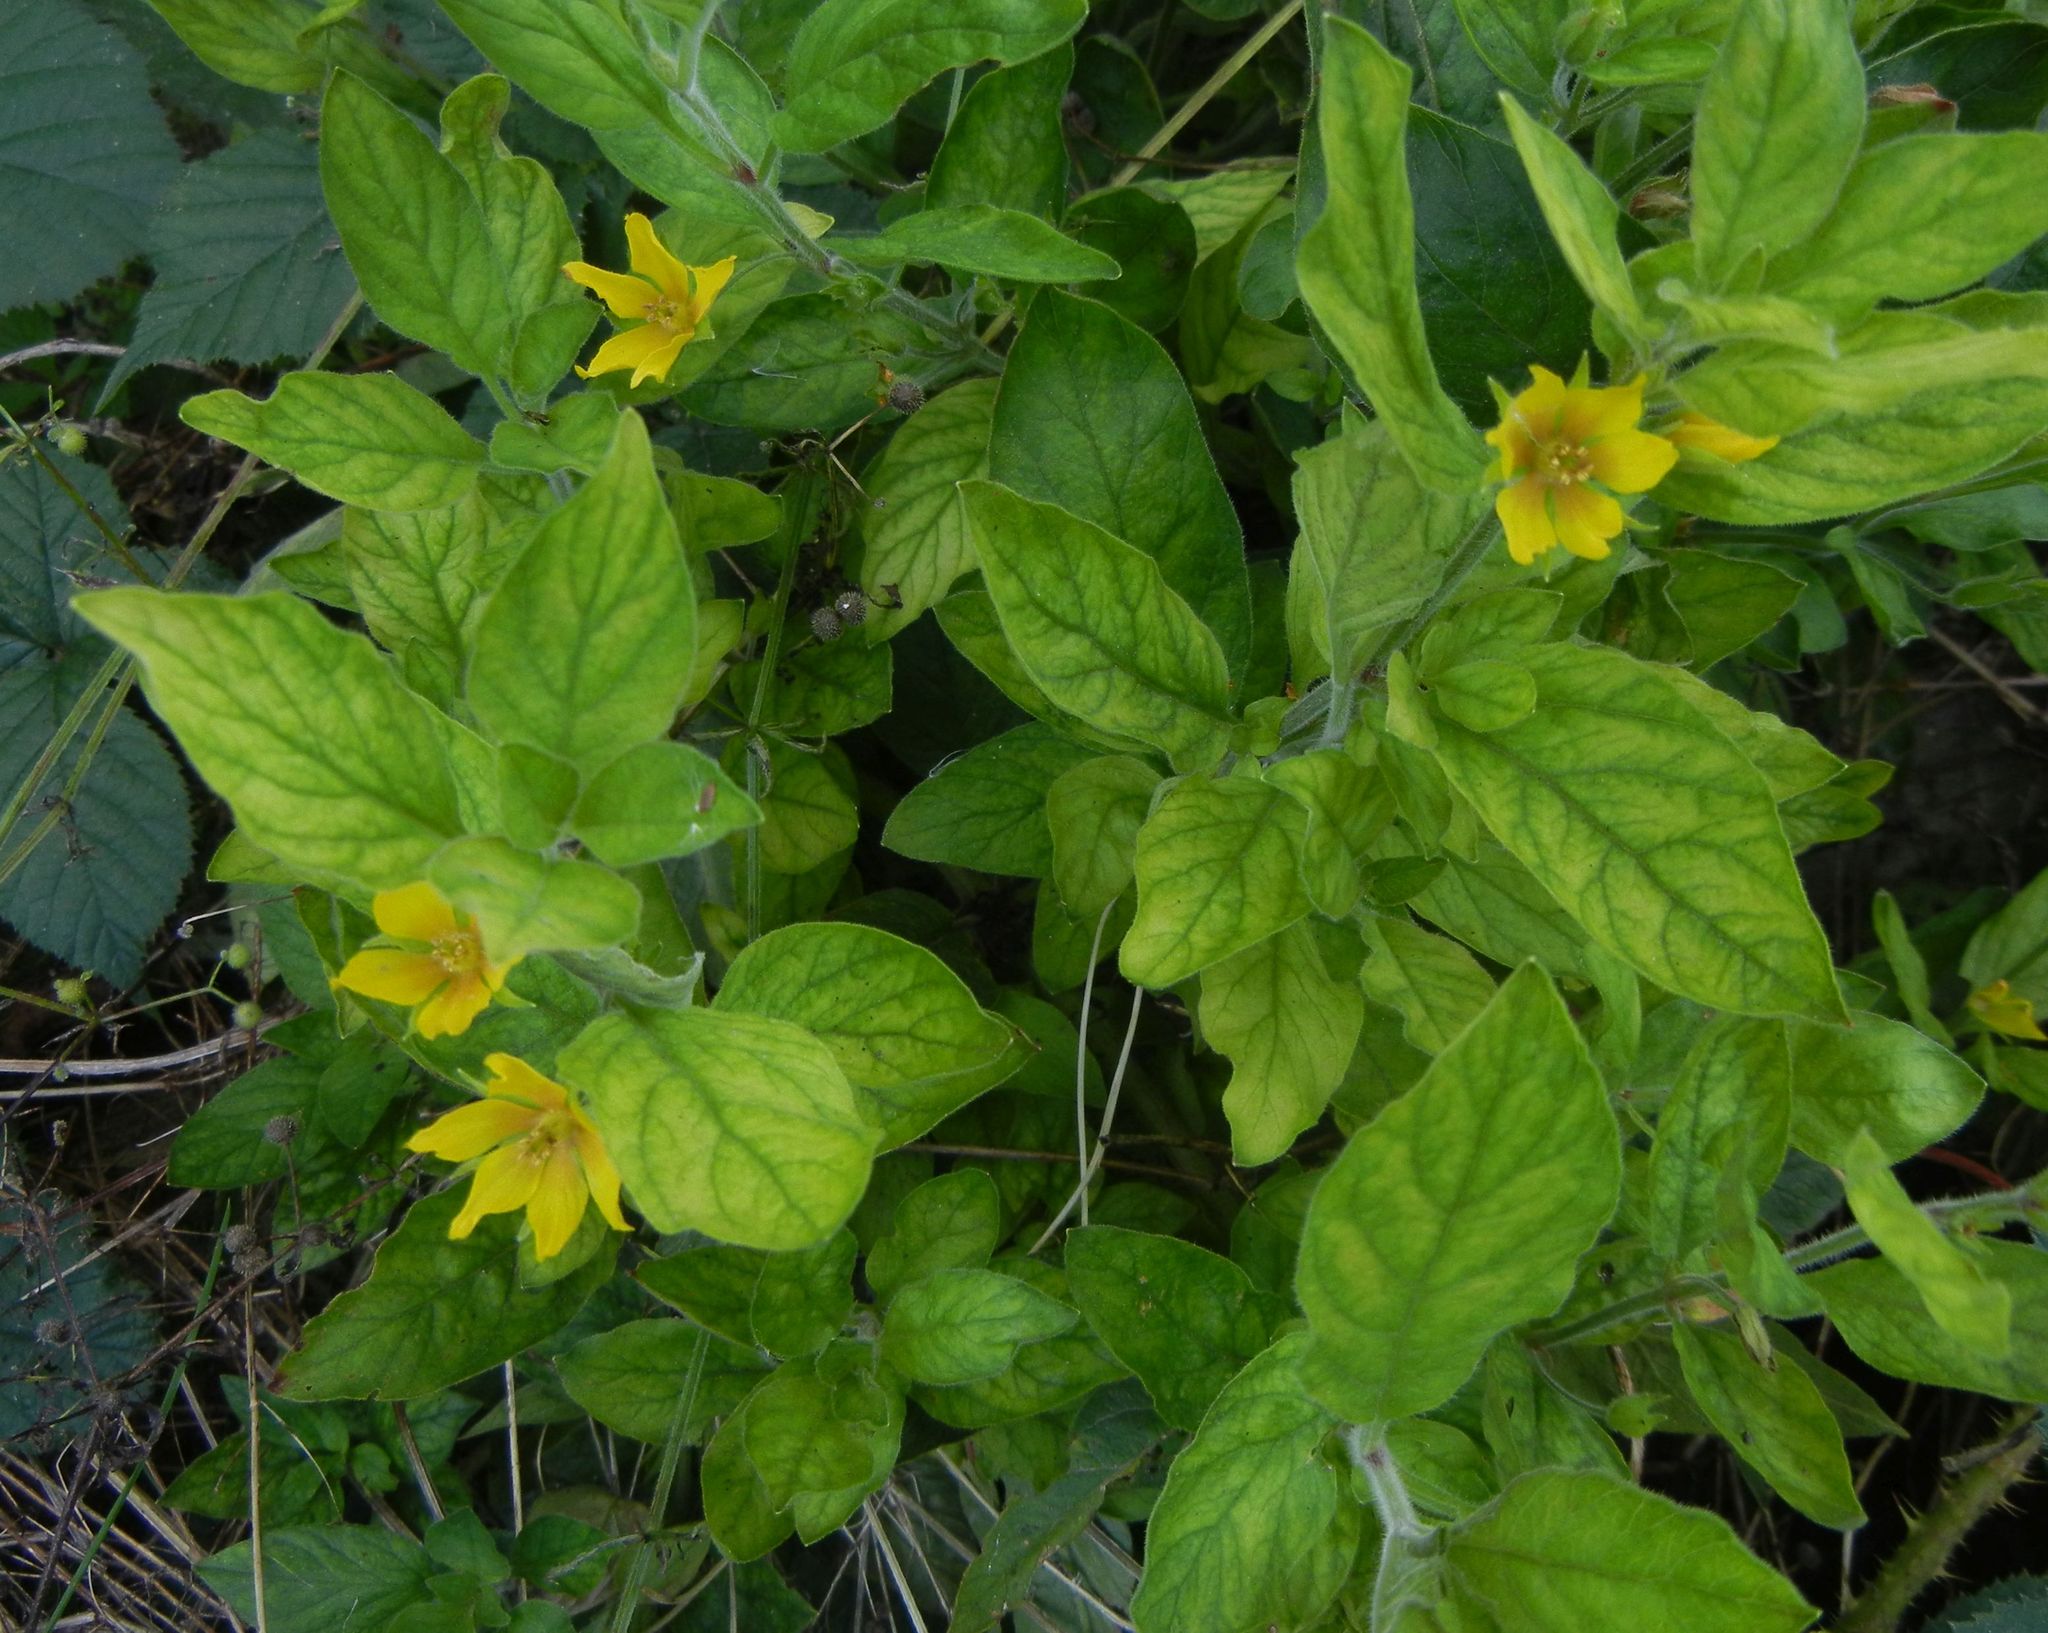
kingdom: Plantae
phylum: Tracheophyta
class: Magnoliopsida
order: Ericales
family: Primulaceae
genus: Lysimachia
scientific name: Lysimachia punctata
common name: Dotted loosestrife
